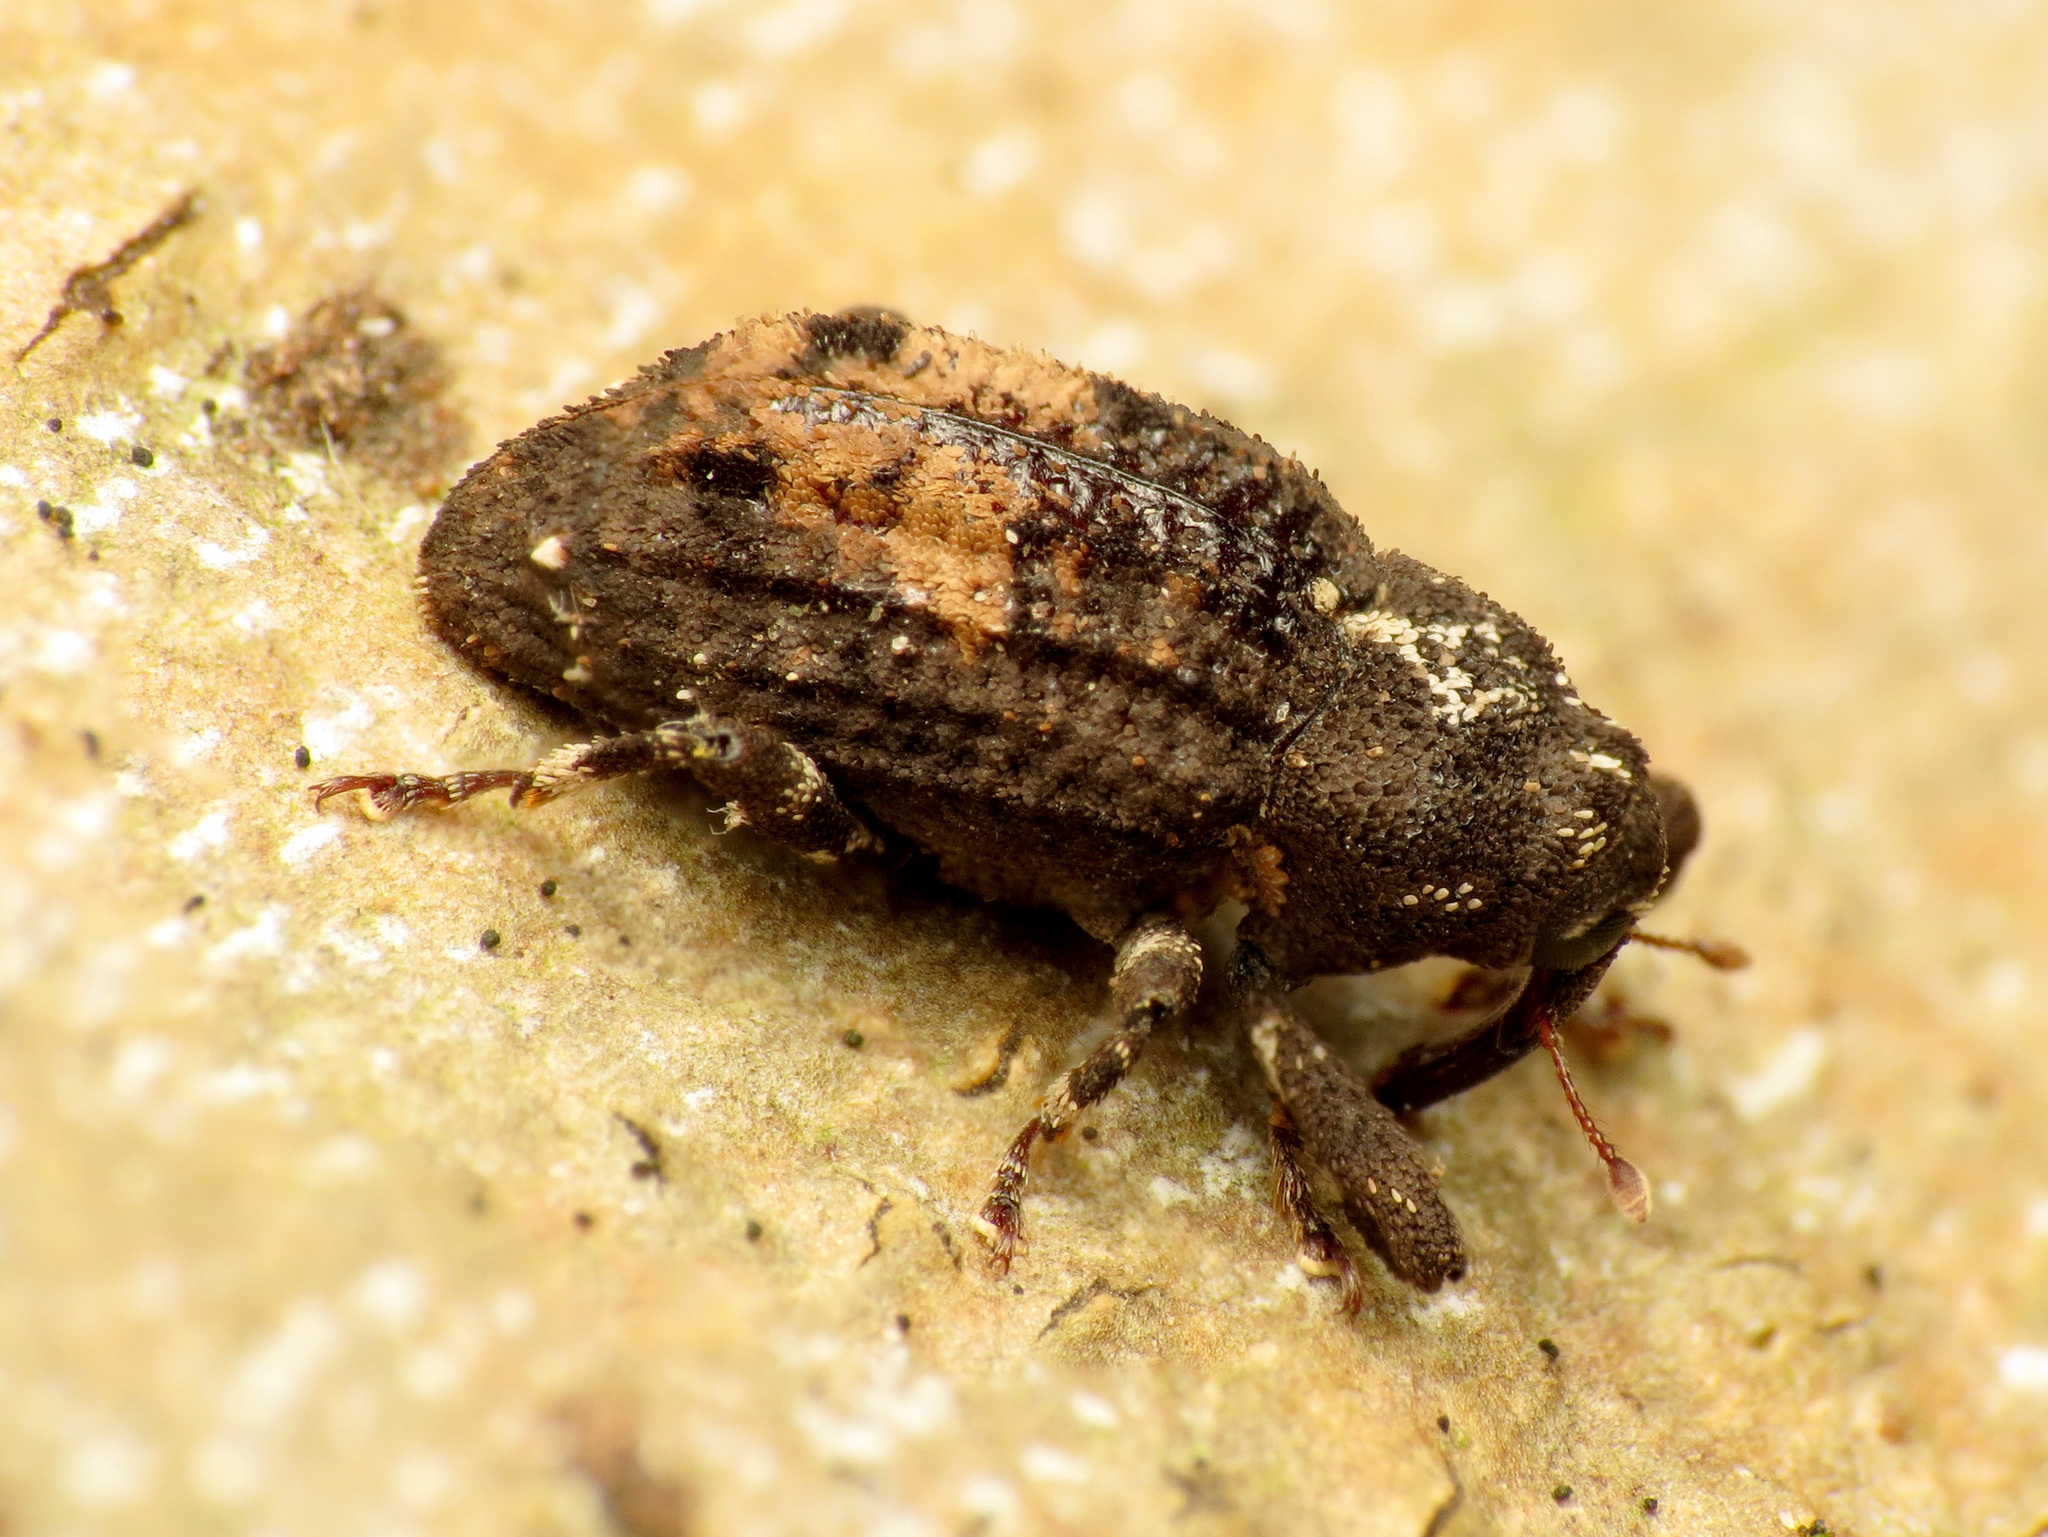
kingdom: Animalia
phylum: Arthropoda
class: Insecta
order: Coleoptera
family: Curculionidae
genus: Cophes
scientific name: Cophes obtentus
